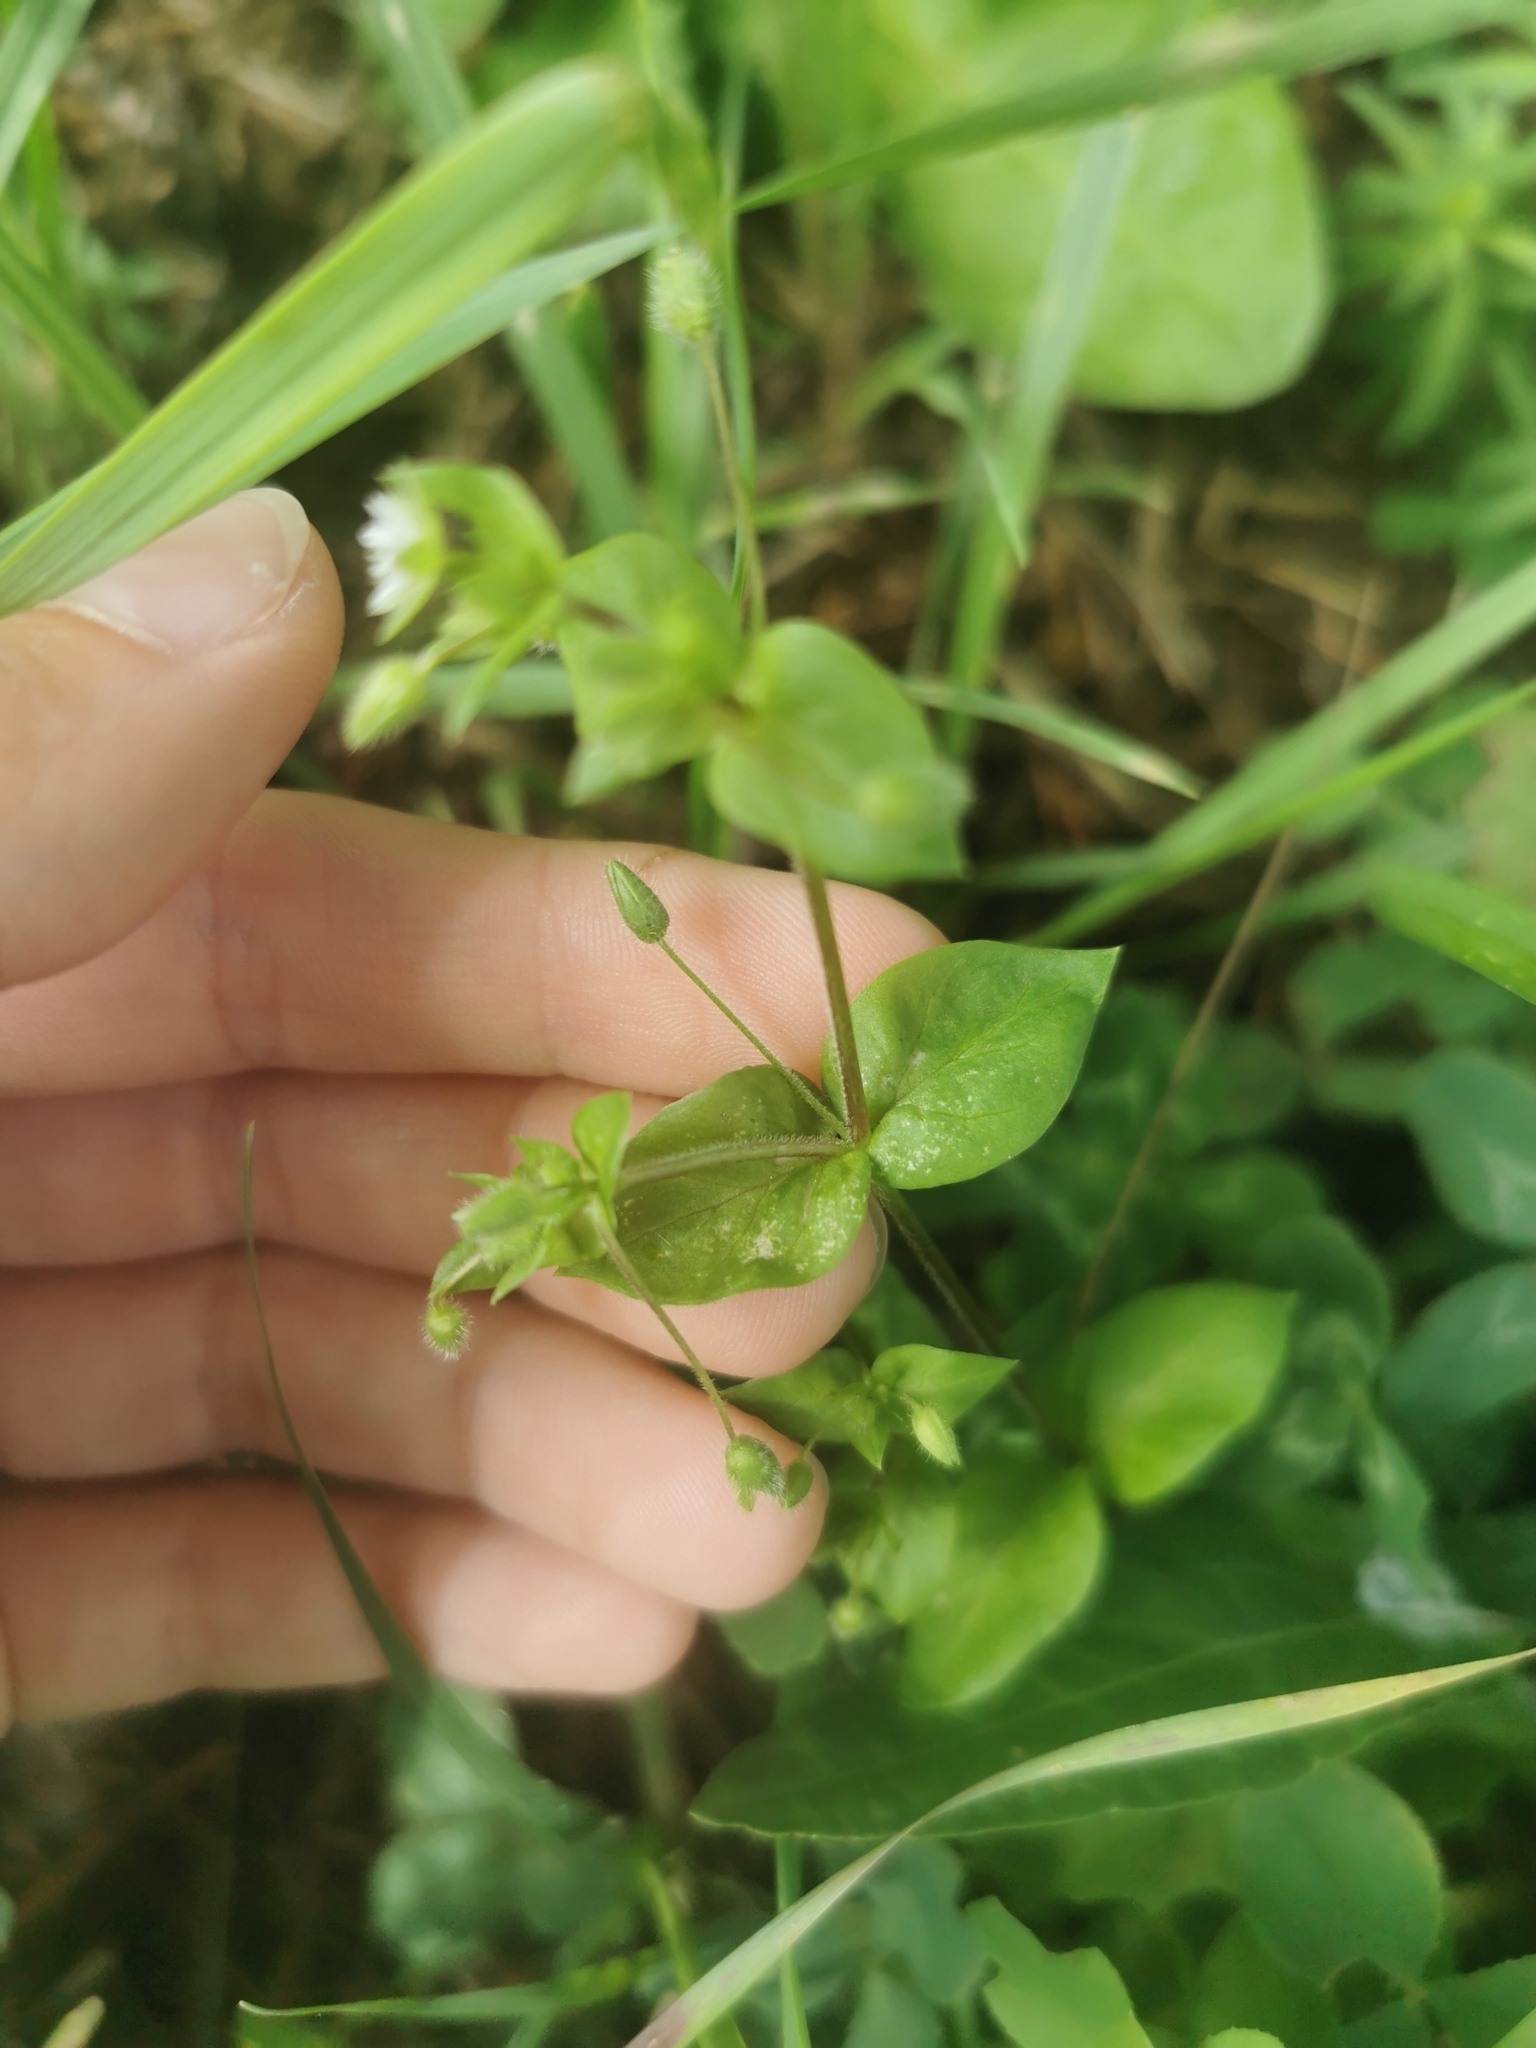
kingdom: Plantae
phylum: Tracheophyta
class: Magnoliopsida
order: Caryophyllales
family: Caryophyllaceae
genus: Stellaria
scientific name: Stellaria media
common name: Common chickweed
